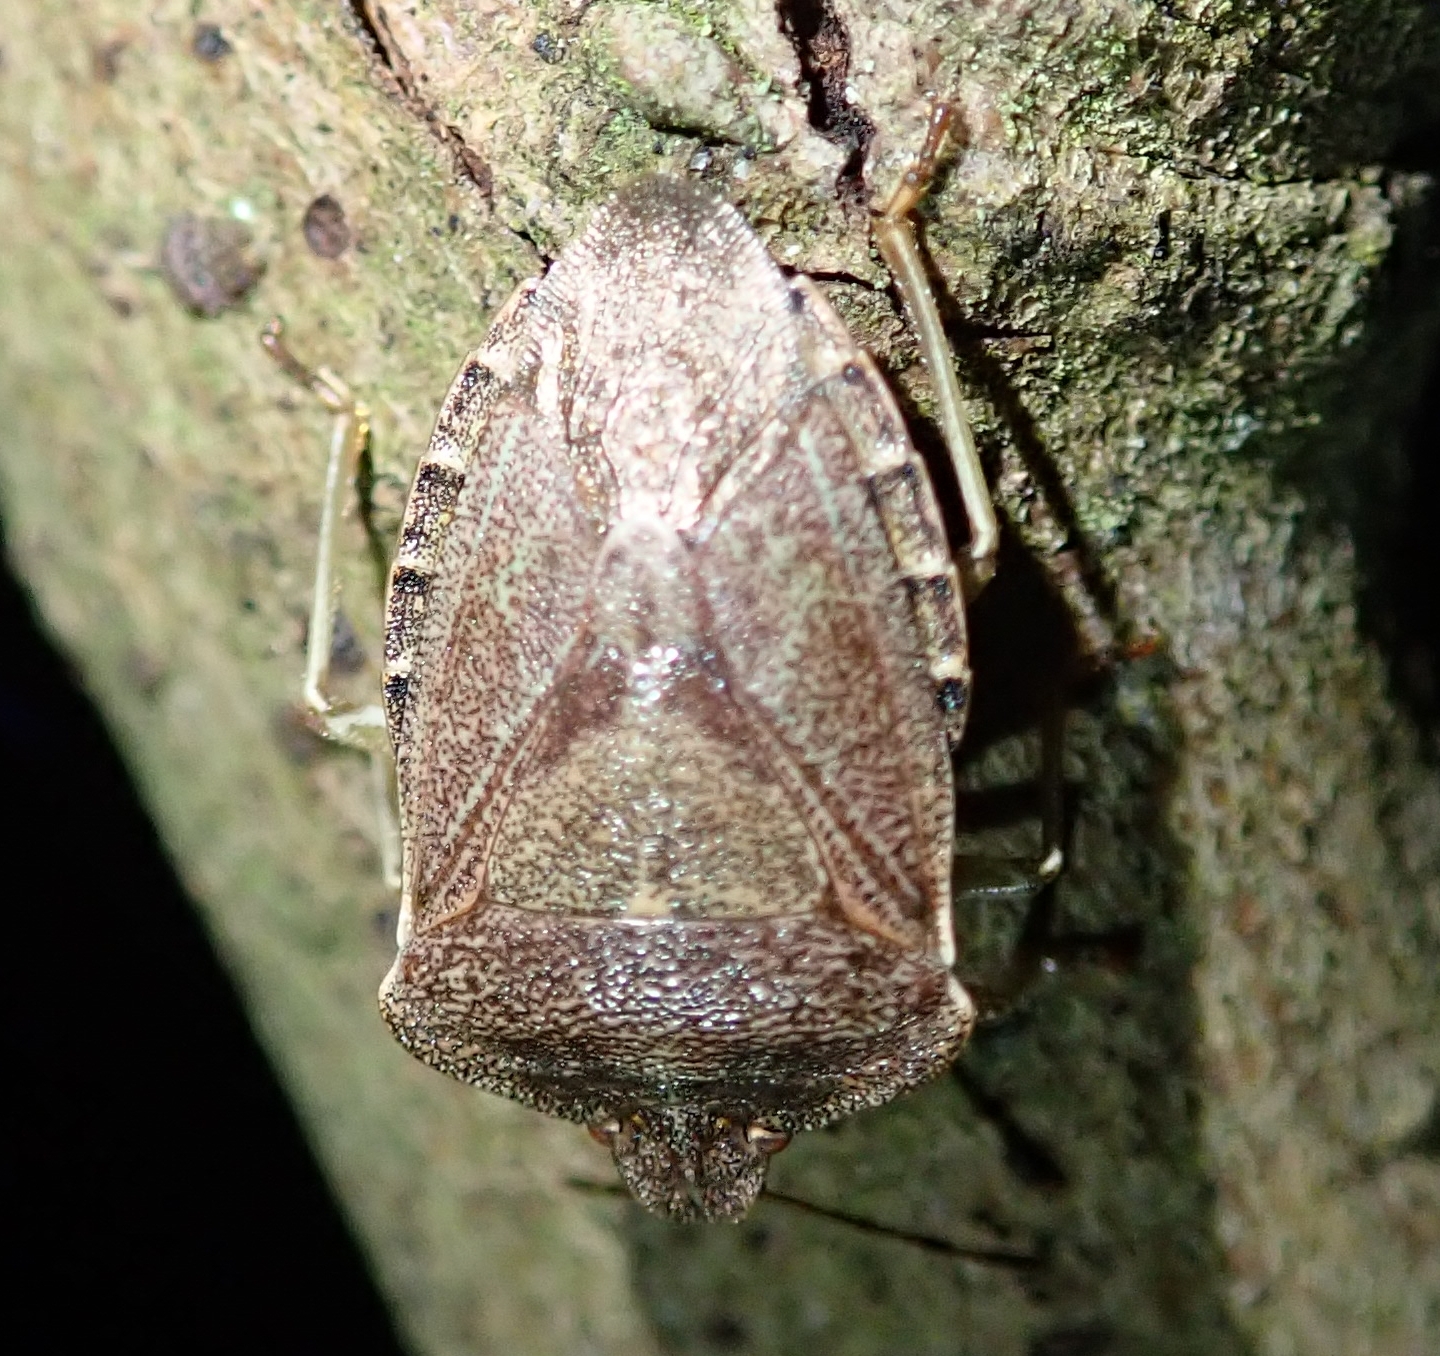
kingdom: Animalia
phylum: Arthropoda
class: Insecta
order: Hemiptera
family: Pentatomidae
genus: Palomena
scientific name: Palomena prasina
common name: Green shieldbug
